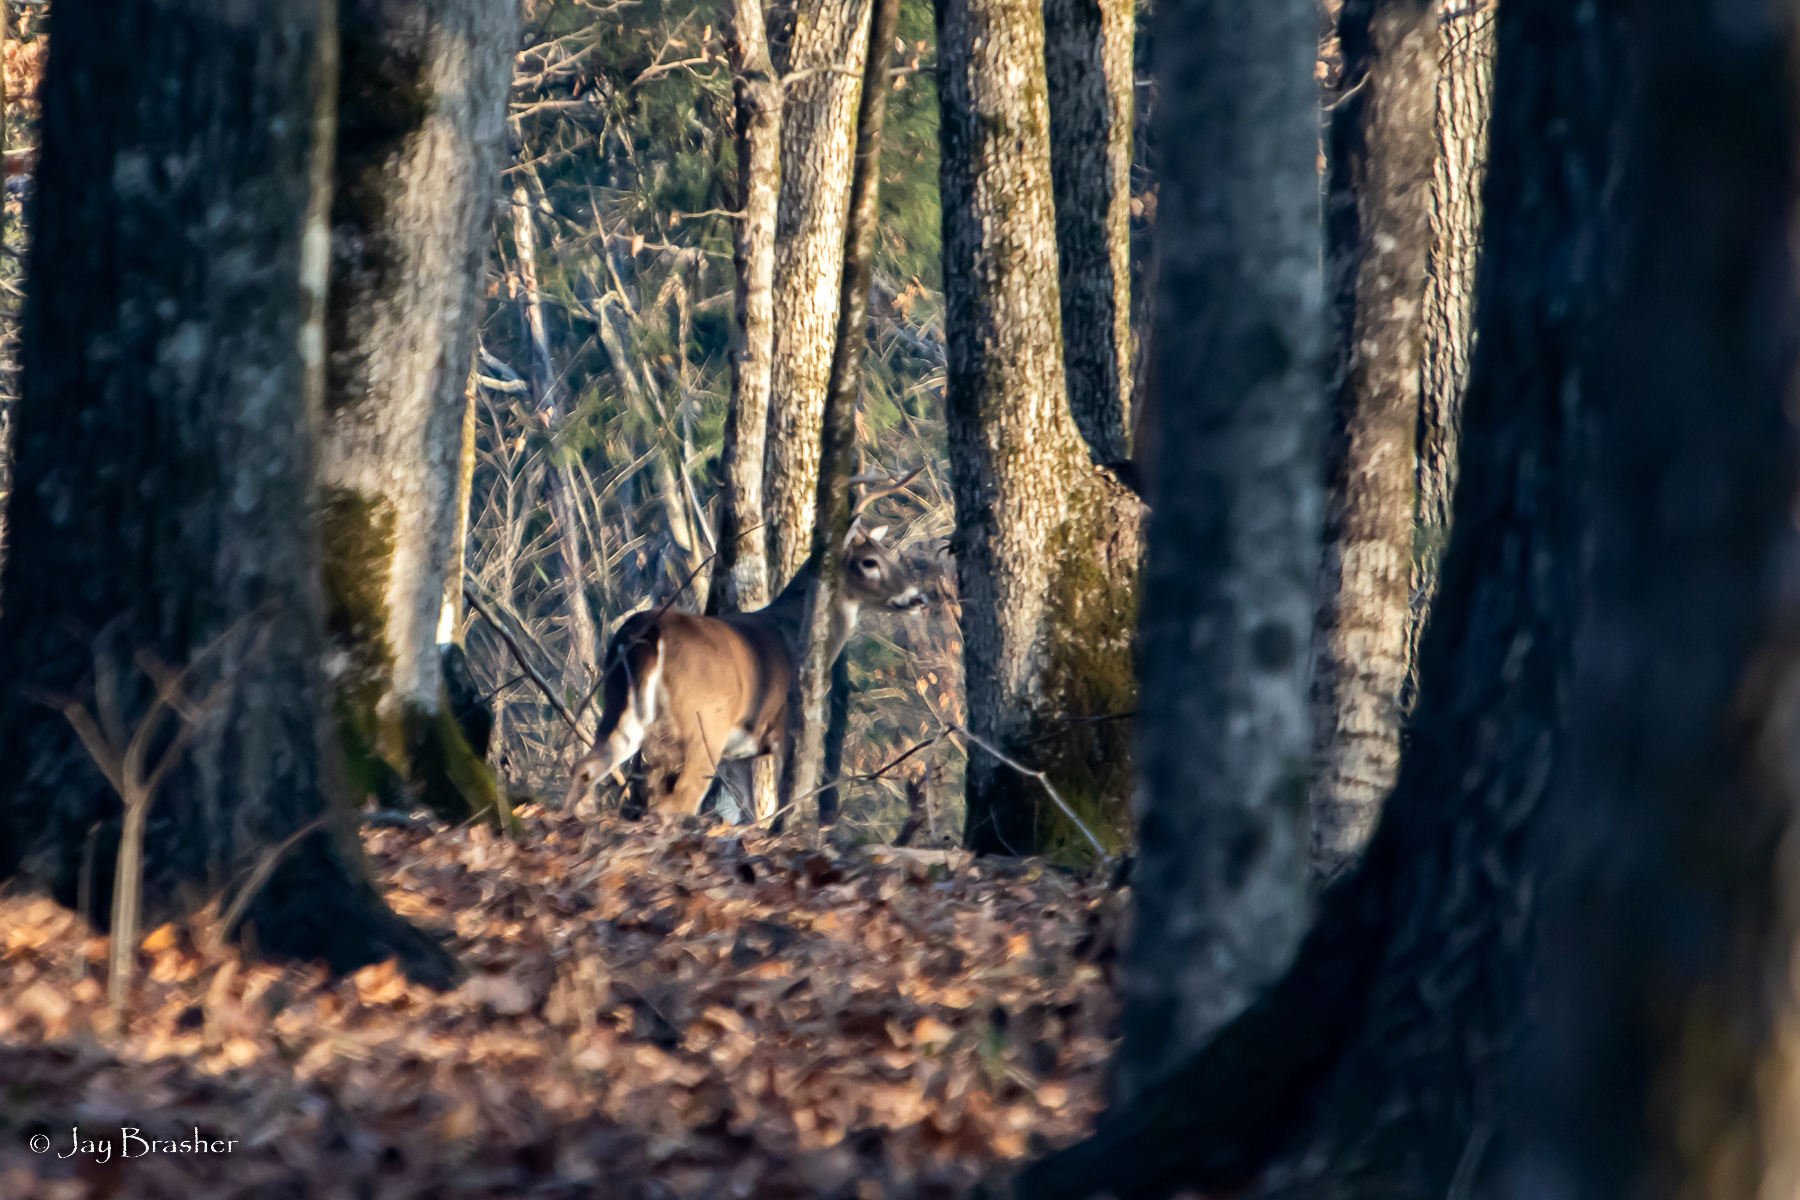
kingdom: Animalia
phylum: Chordata
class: Mammalia
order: Artiodactyla
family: Cervidae
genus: Odocoileus
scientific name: Odocoileus virginianus
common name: White-tailed deer
